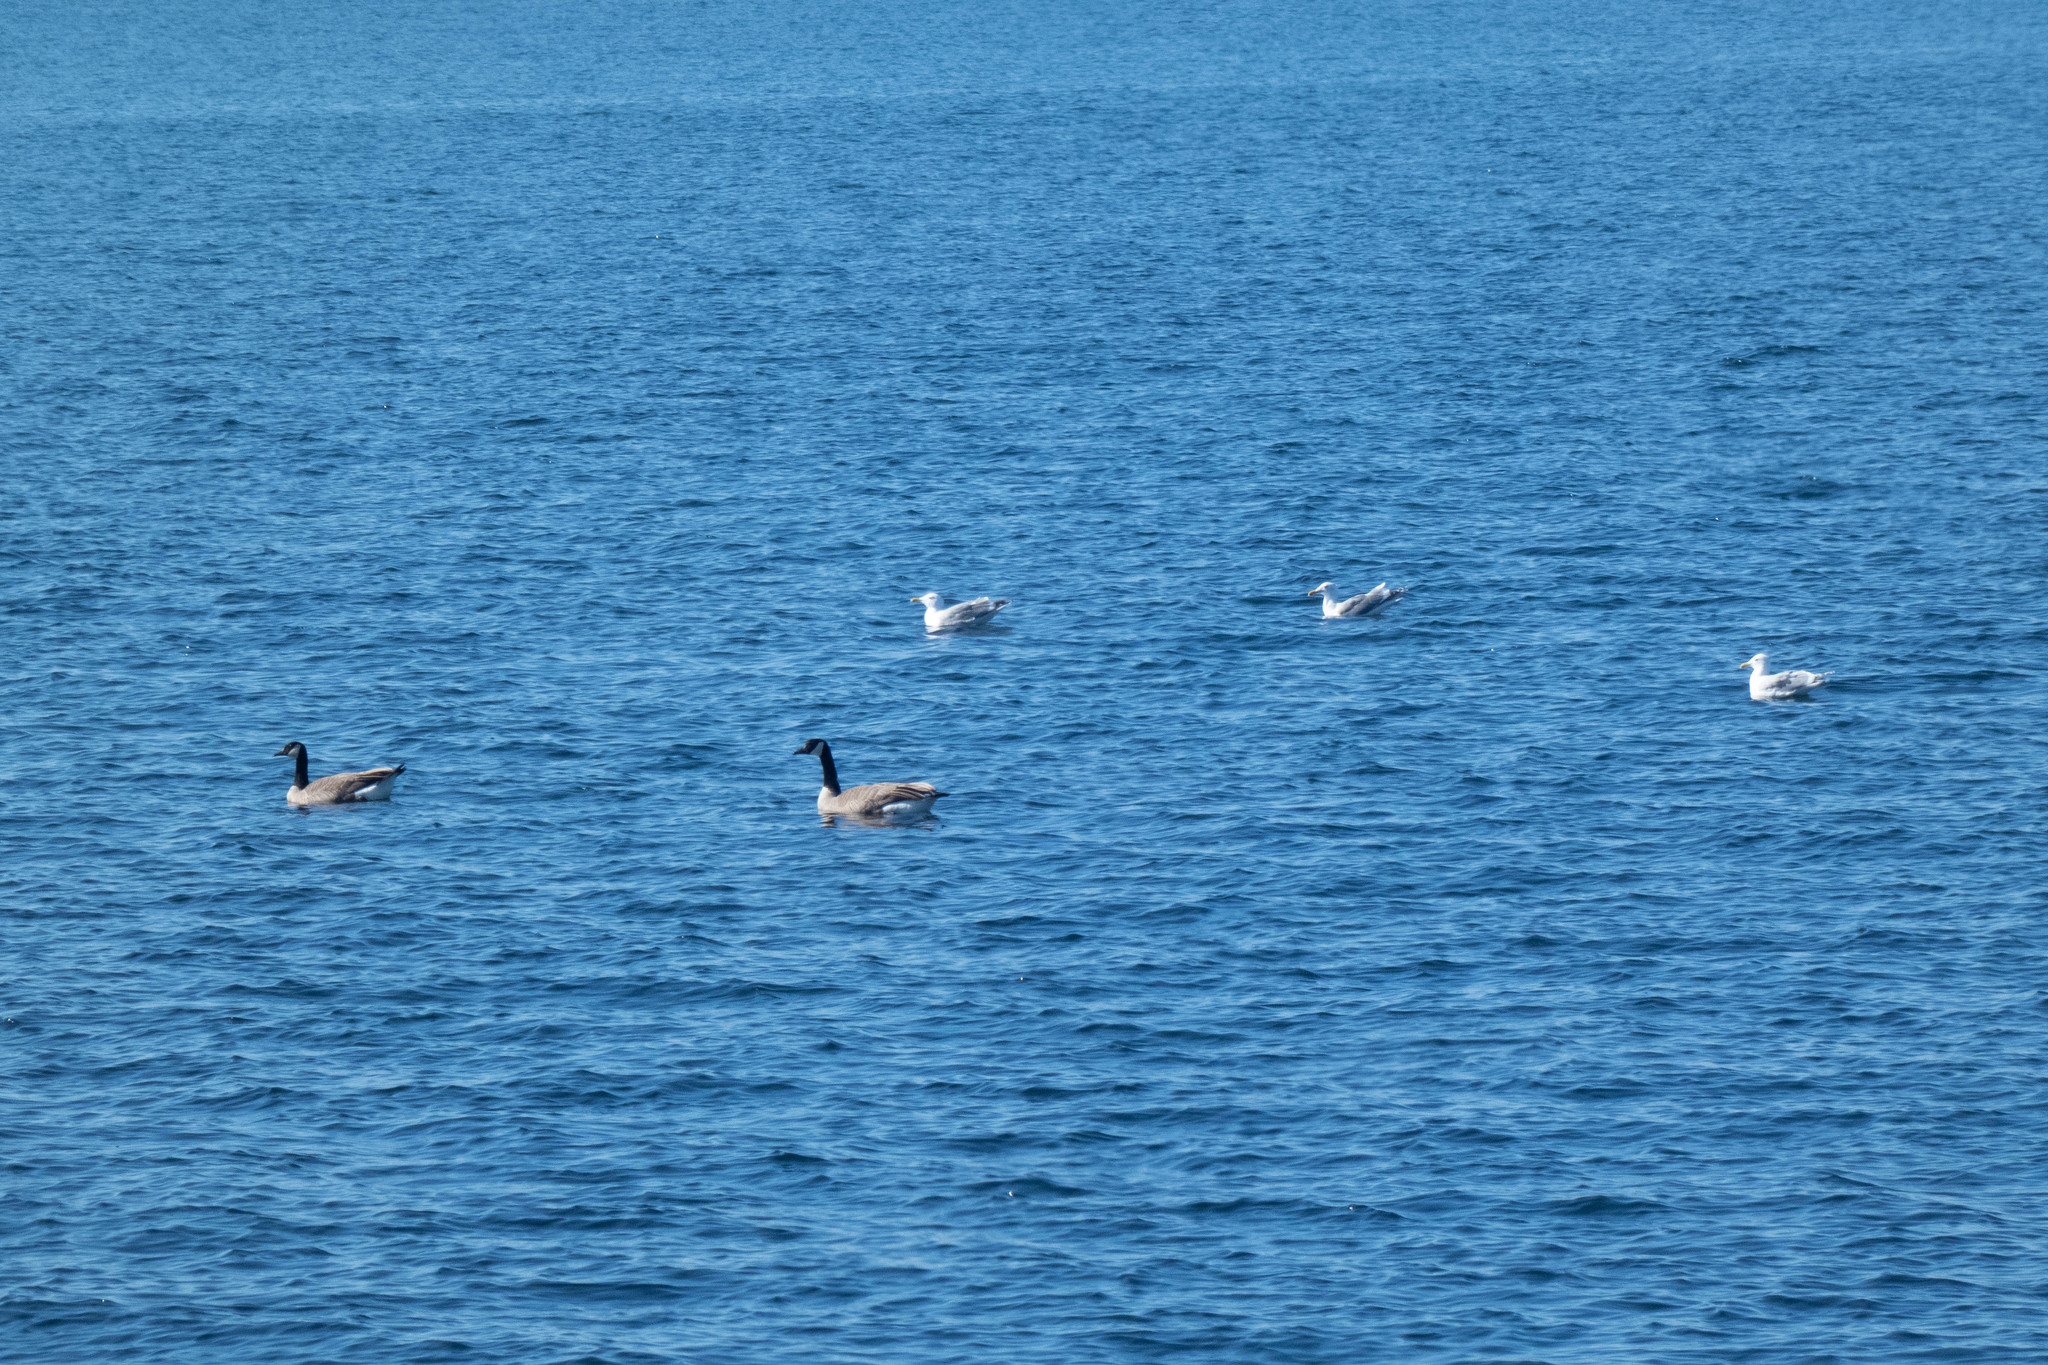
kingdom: Animalia
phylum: Chordata
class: Aves
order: Anseriformes
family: Anatidae
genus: Branta
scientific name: Branta canadensis
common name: Canada goose
